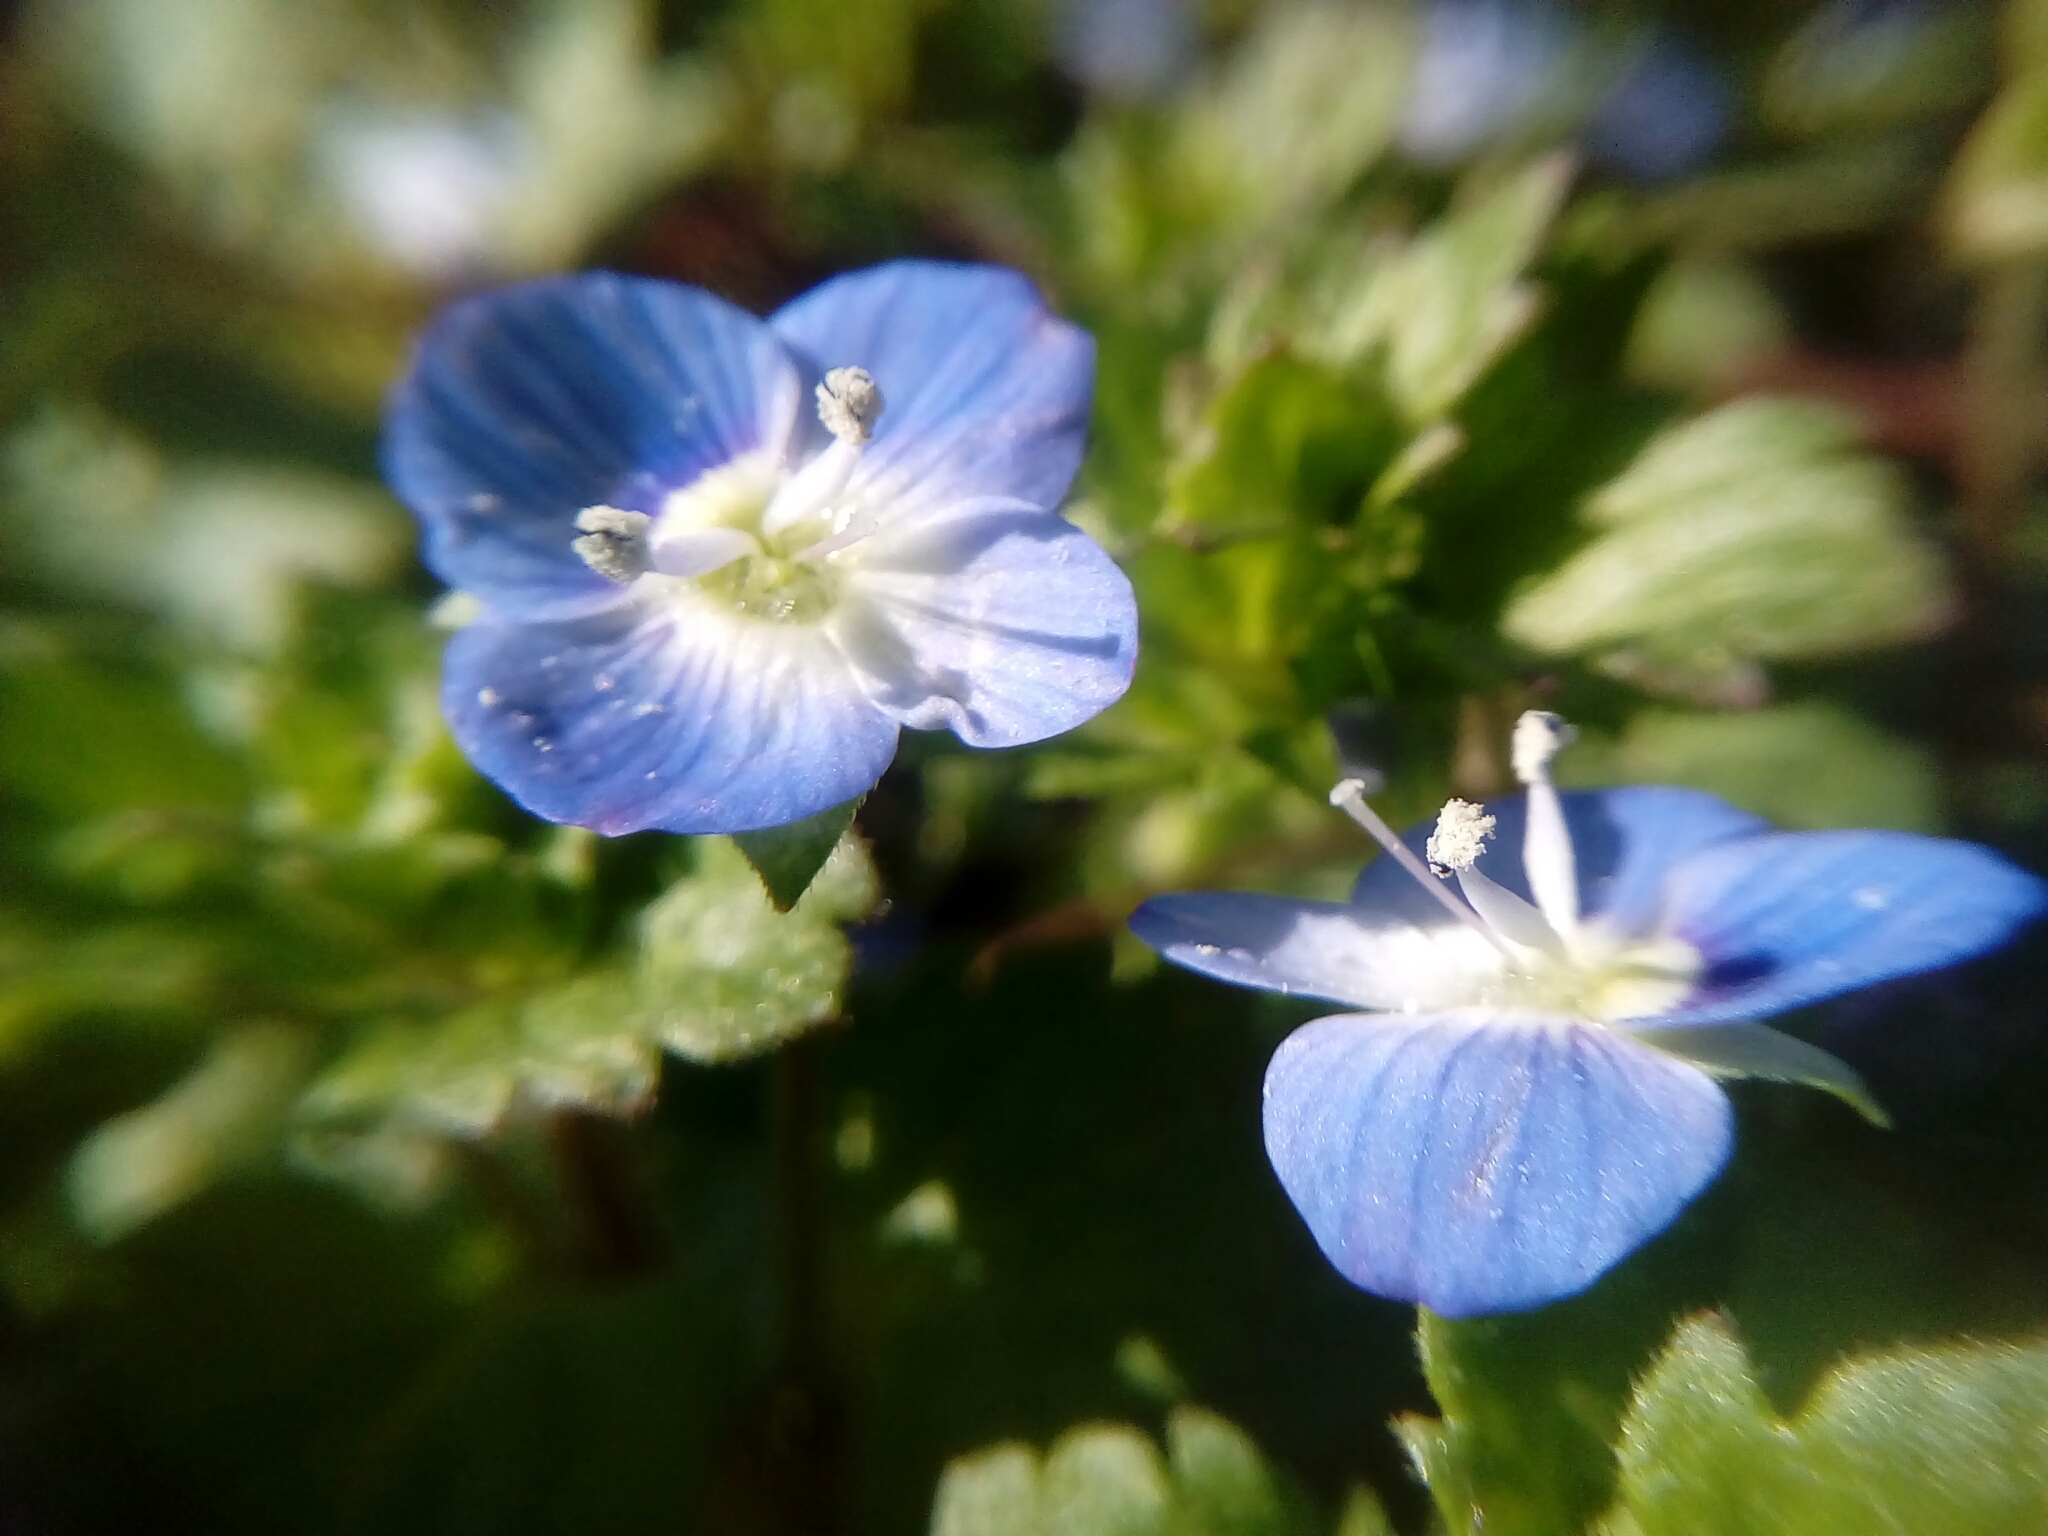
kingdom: Plantae
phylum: Tracheophyta
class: Magnoliopsida
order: Lamiales
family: Plantaginaceae
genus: Veronica
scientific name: Veronica persica
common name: Common field-speedwell
